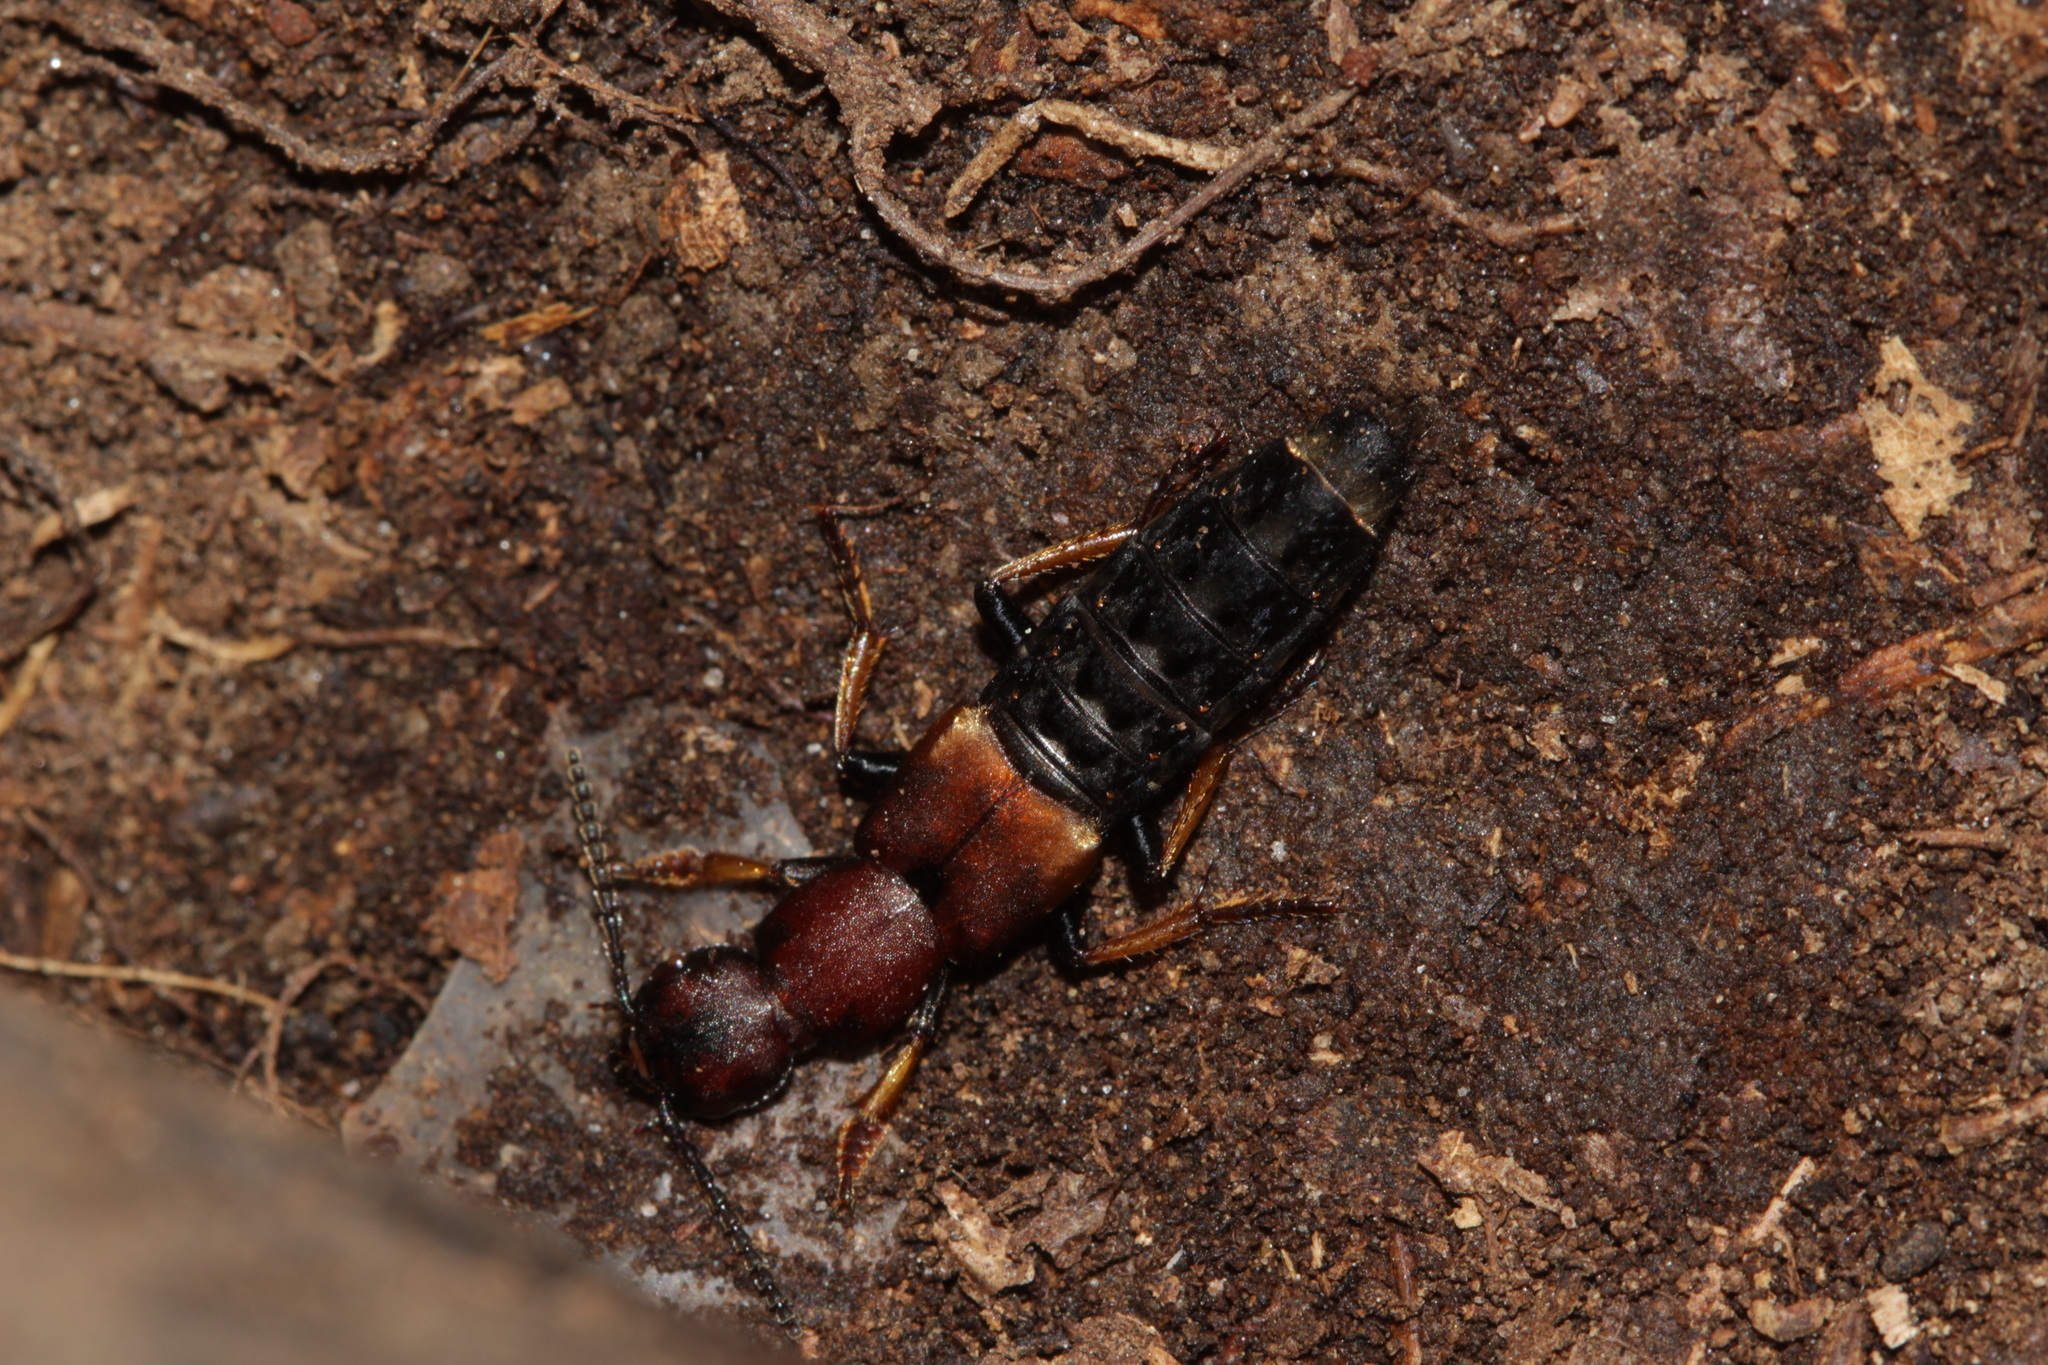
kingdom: Animalia
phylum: Arthropoda
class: Insecta
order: Coleoptera
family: Staphylinidae
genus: Dinothenarus
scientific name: Dinothenarus fossor
